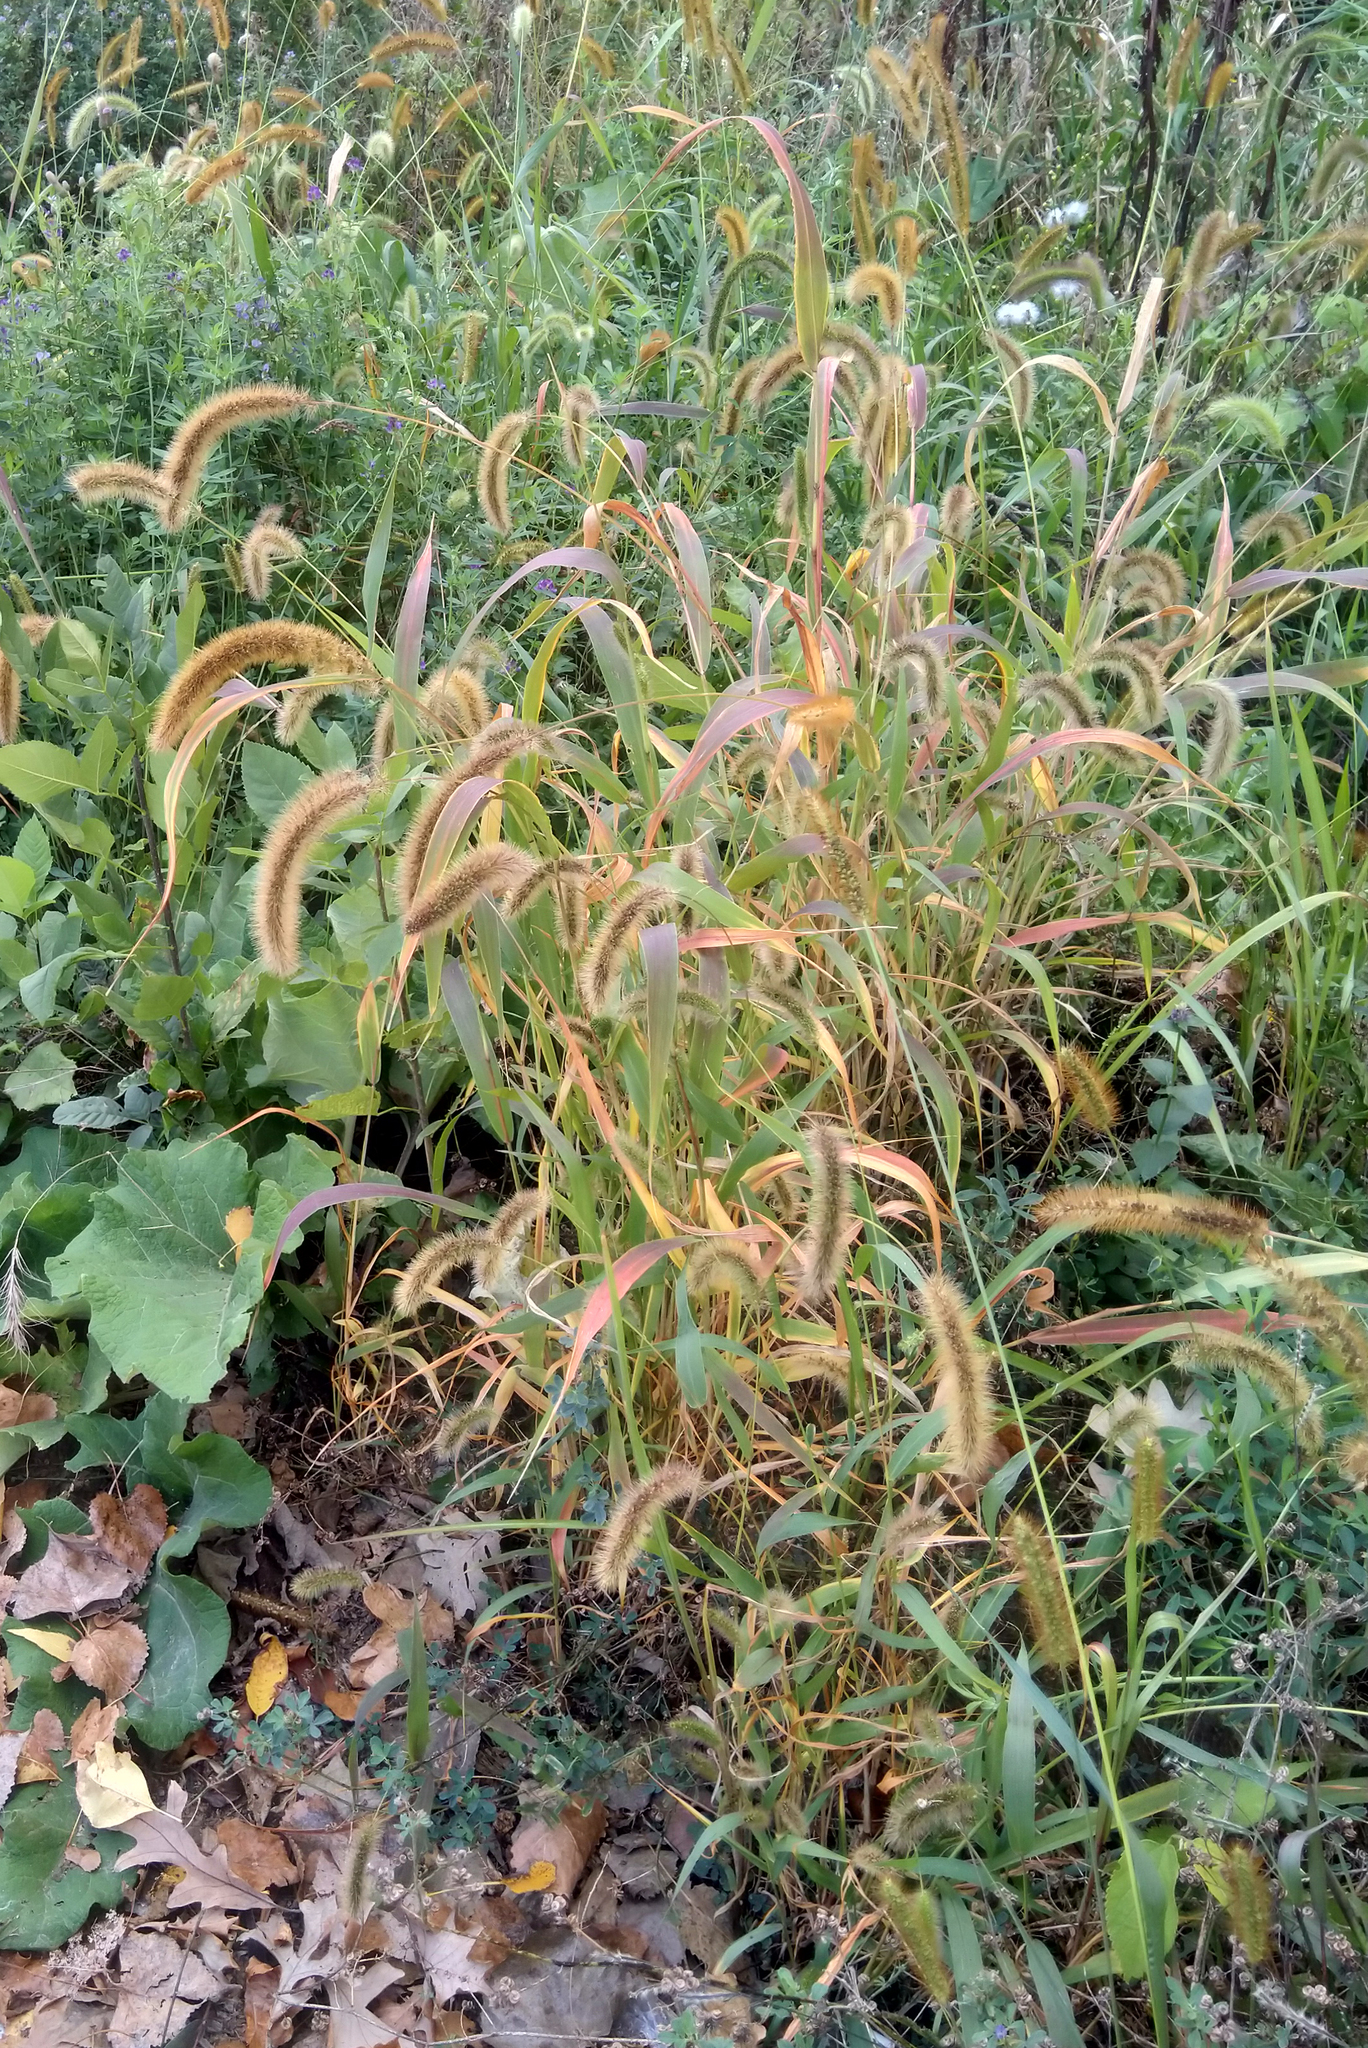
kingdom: Plantae
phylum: Tracheophyta
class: Liliopsida
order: Poales
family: Poaceae
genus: Setaria
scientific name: Setaria faberi
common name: Nodding bristle-grass
